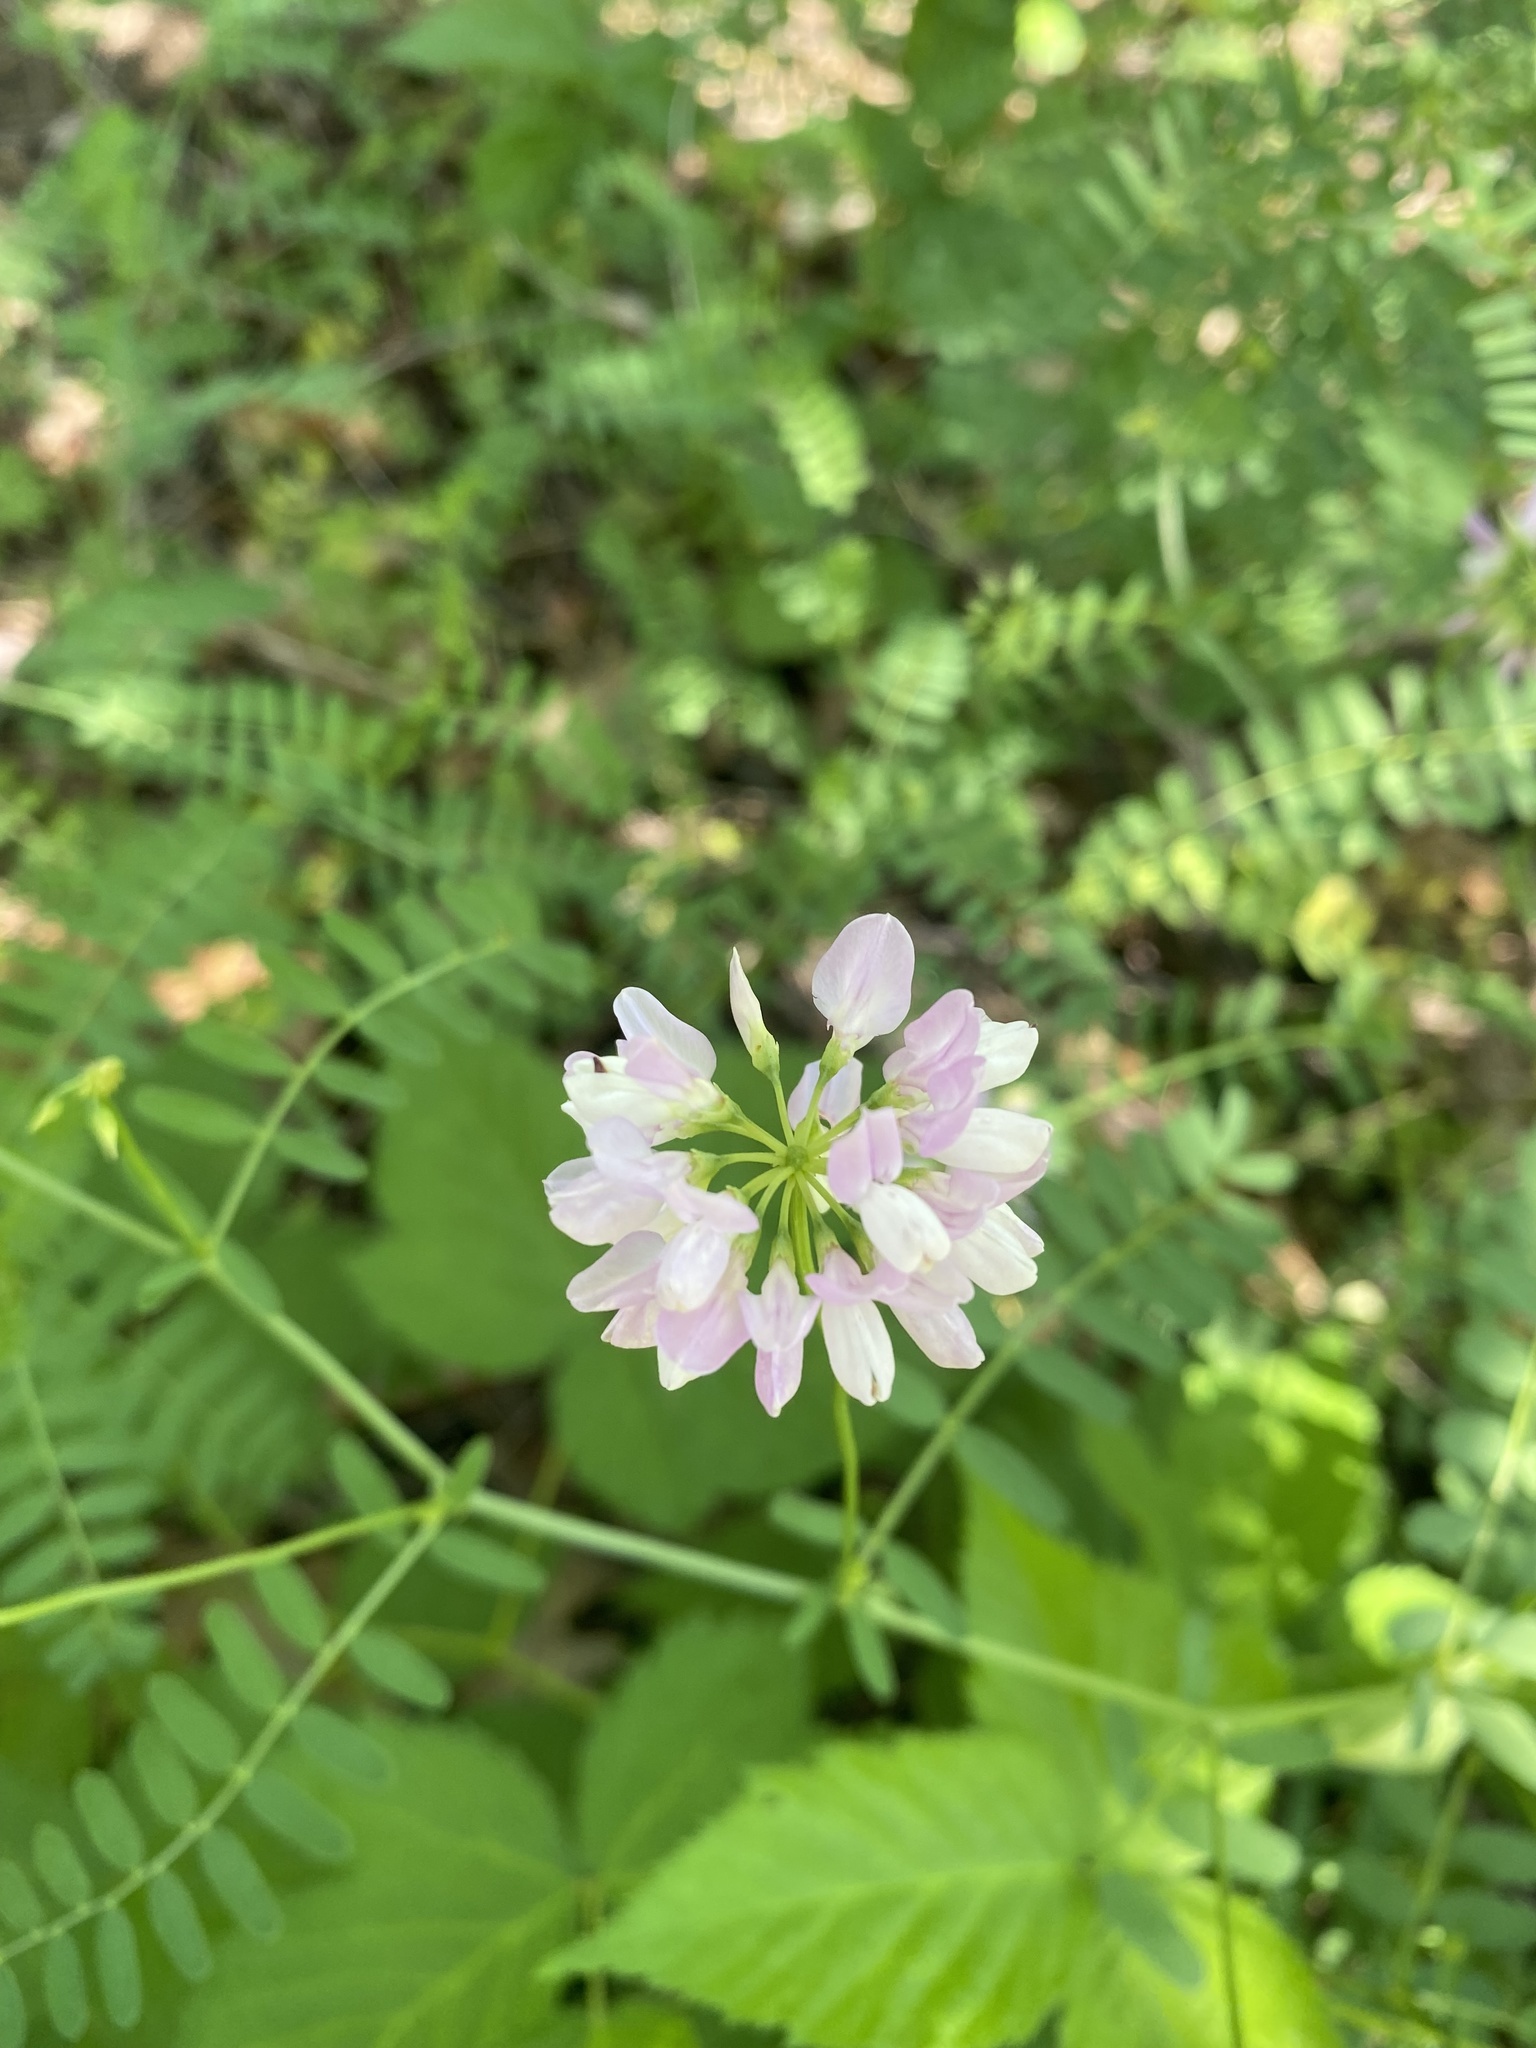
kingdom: Plantae
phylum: Tracheophyta
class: Magnoliopsida
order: Fabales
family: Fabaceae
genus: Coronilla
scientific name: Coronilla varia
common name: Crownvetch
